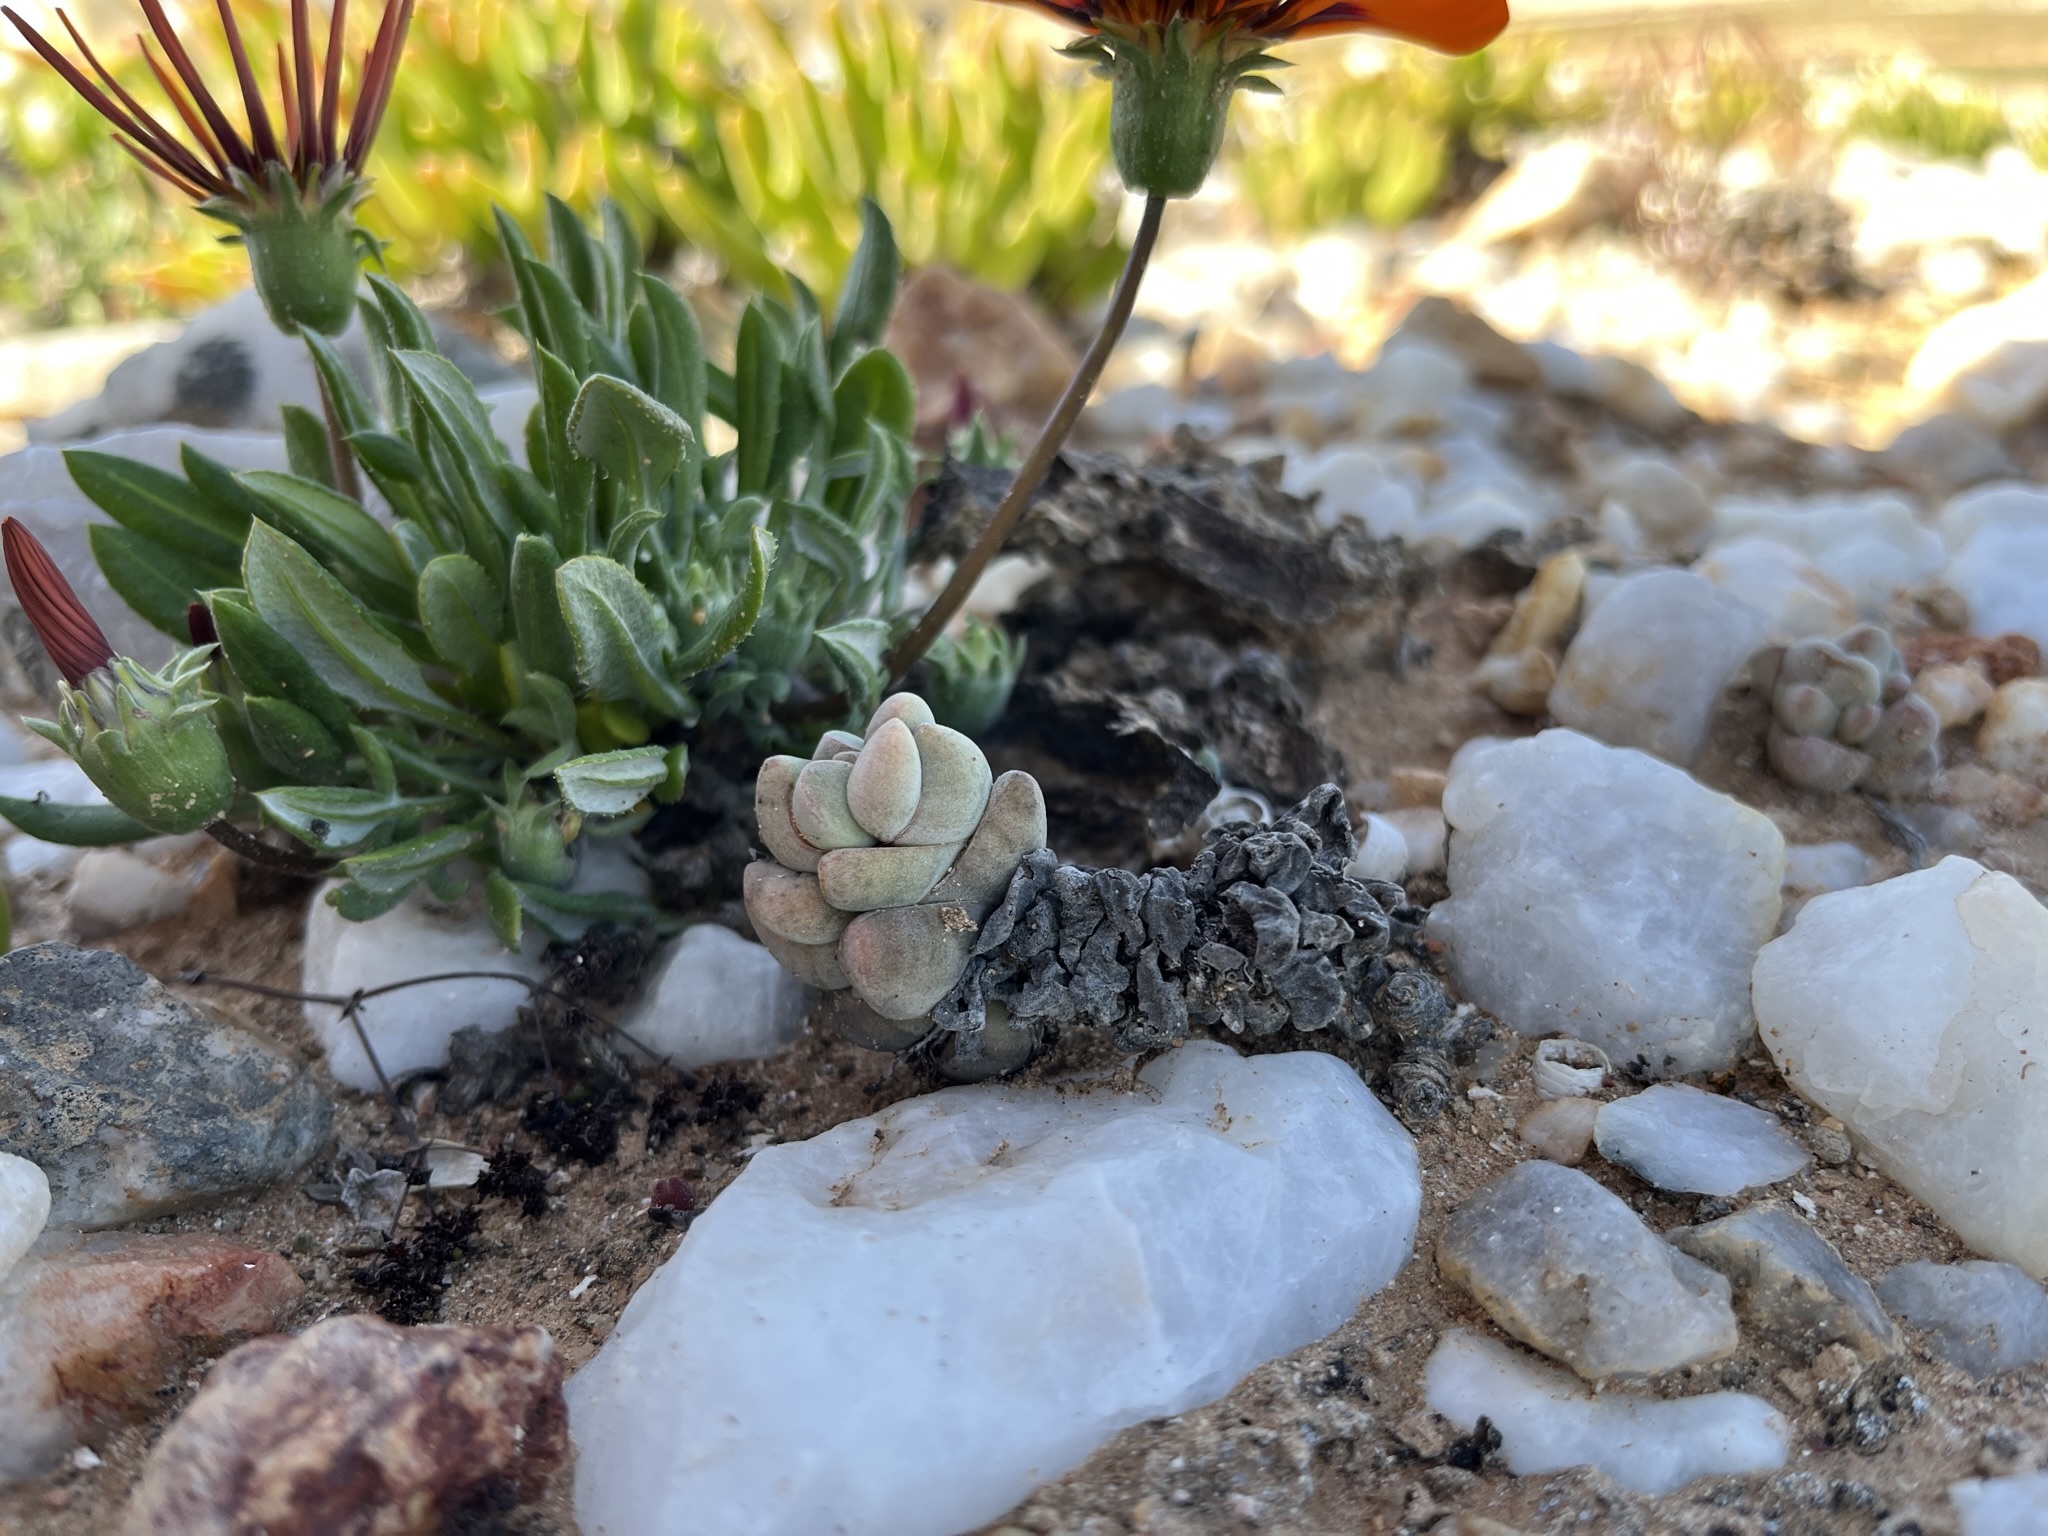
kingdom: Plantae
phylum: Tracheophyta
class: Magnoliopsida
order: Saxifragales
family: Crassulaceae
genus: Crassula
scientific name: Crassula deceptor
